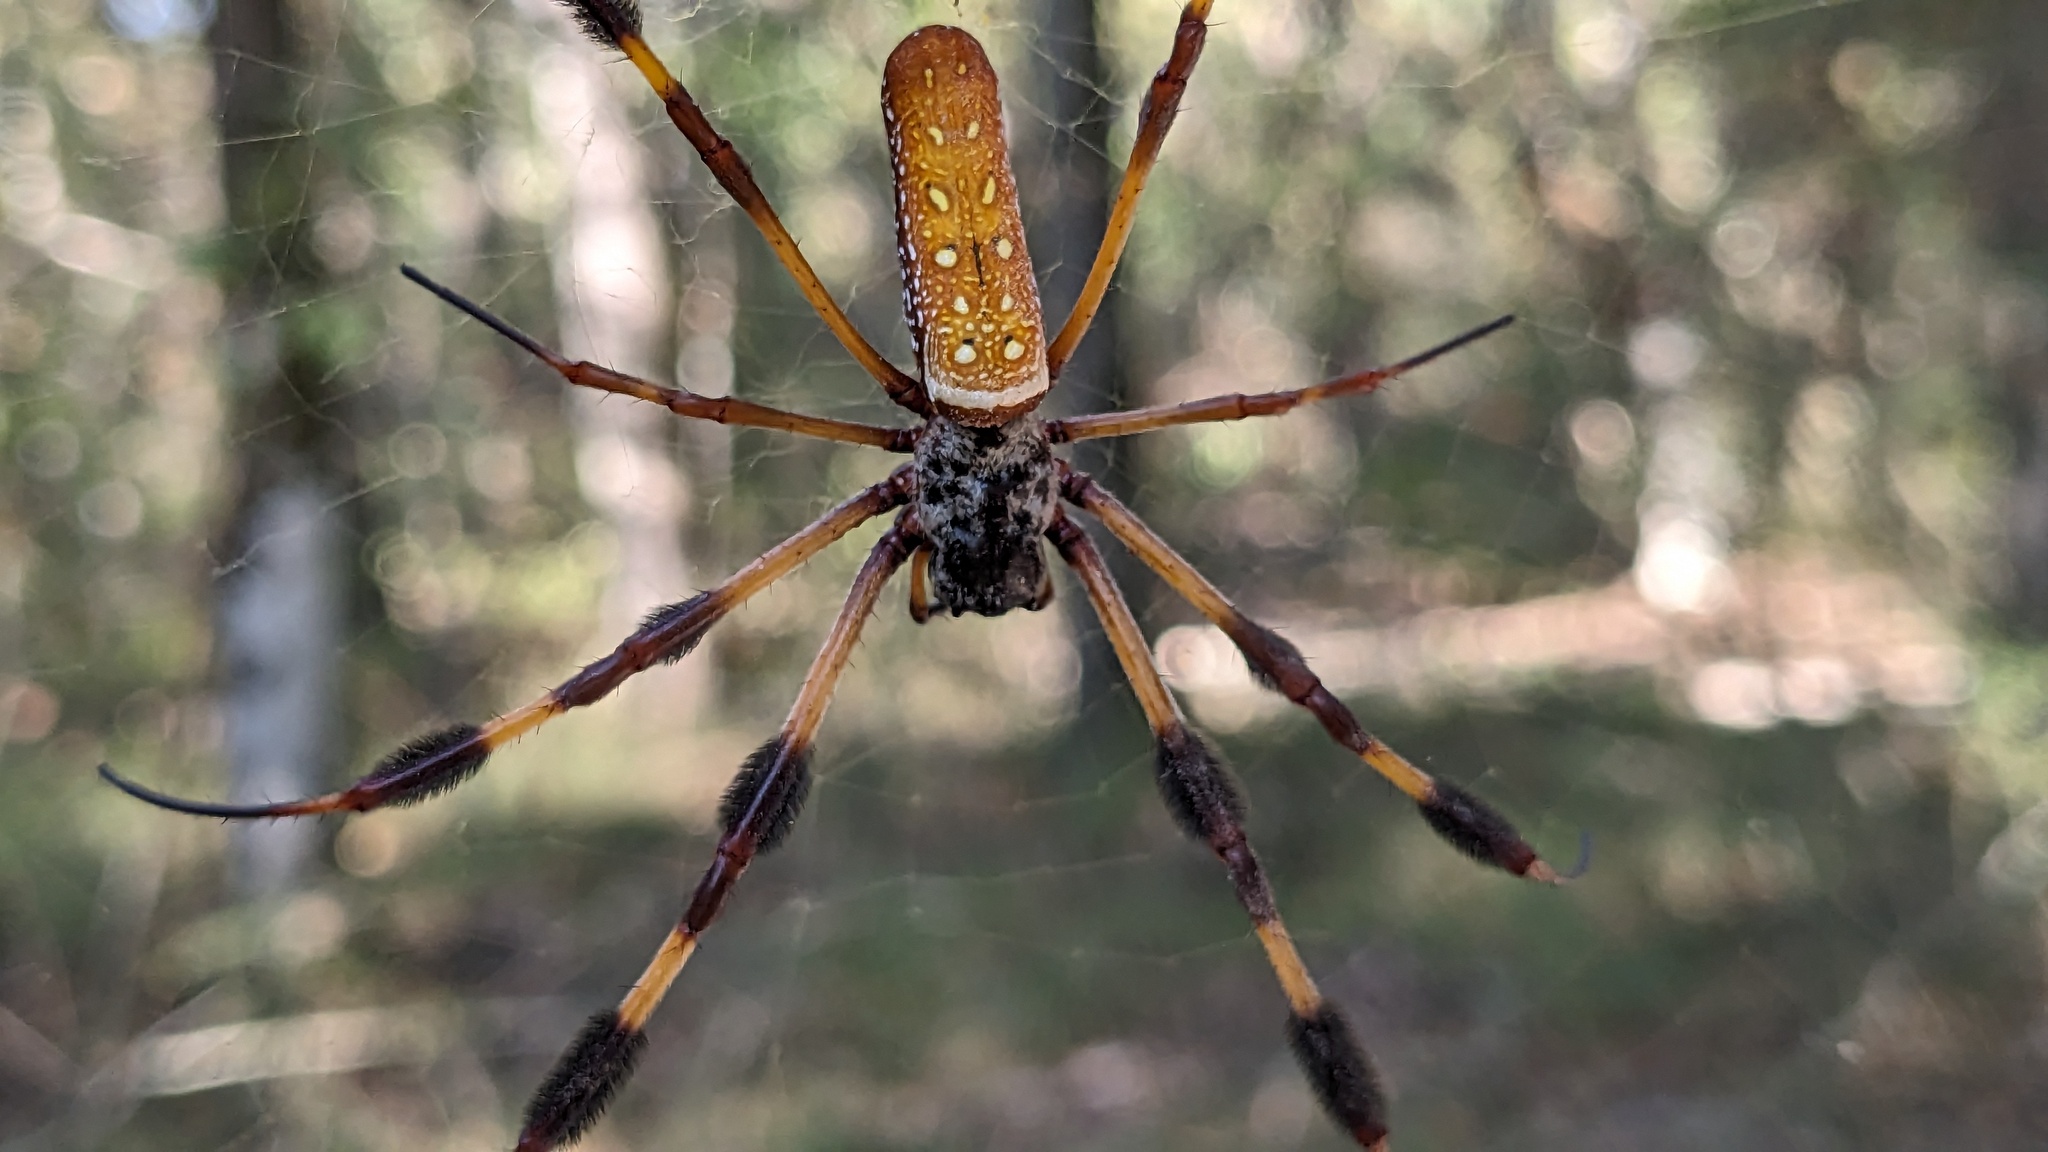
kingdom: Animalia
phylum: Arthropoda
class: Arachnida
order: Araneae
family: Araneidae
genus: Trichonephila
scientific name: Trichonephila clavipes
